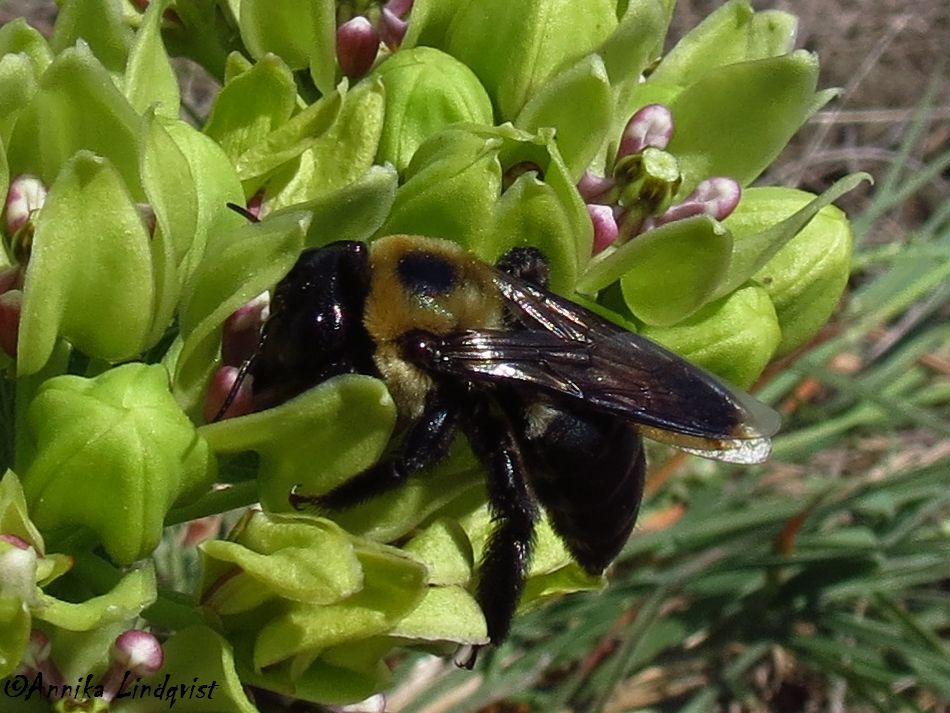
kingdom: Animalia
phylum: Arthropoda
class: Insecta
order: Hymenoptera
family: Apidae
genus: Xylocopa
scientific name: Xylocopa virginica
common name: Carpenter bee
